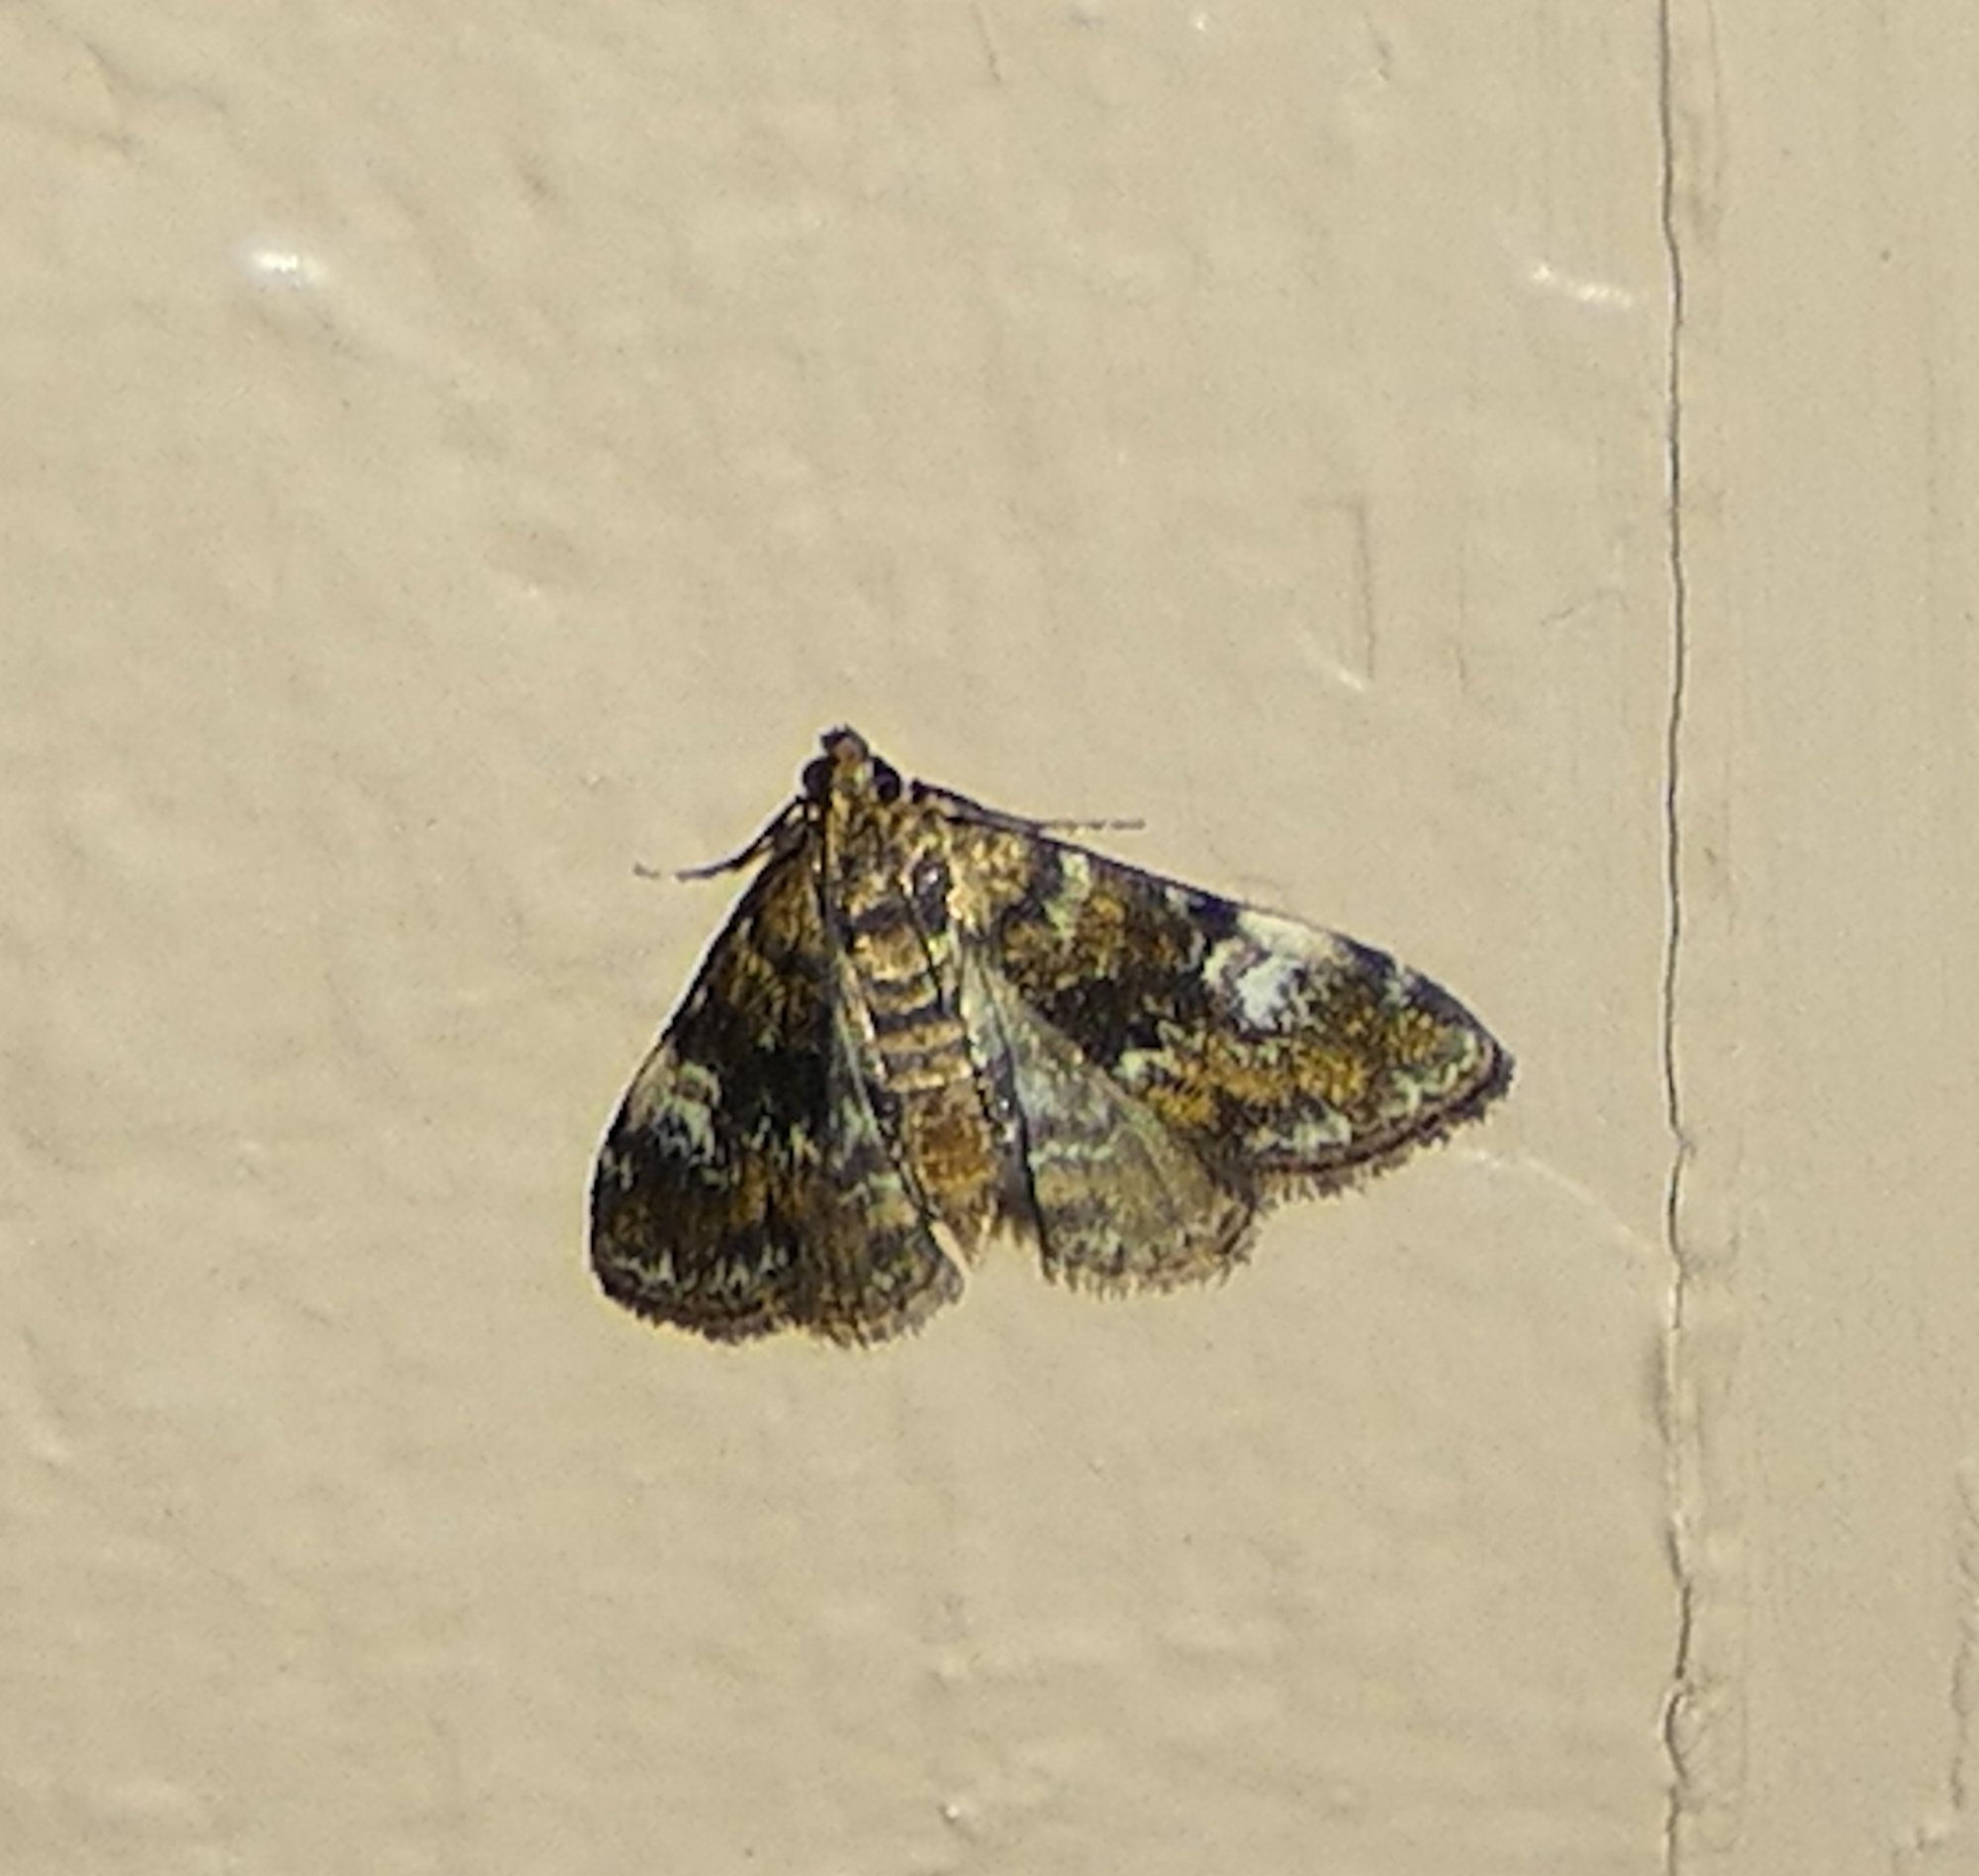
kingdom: Animalia
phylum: Arthropoda
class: Insecta
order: Lepidoptera
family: Crambidae
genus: Elophila
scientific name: Elophila obliteralis
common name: Waterlily leafcutter moth
